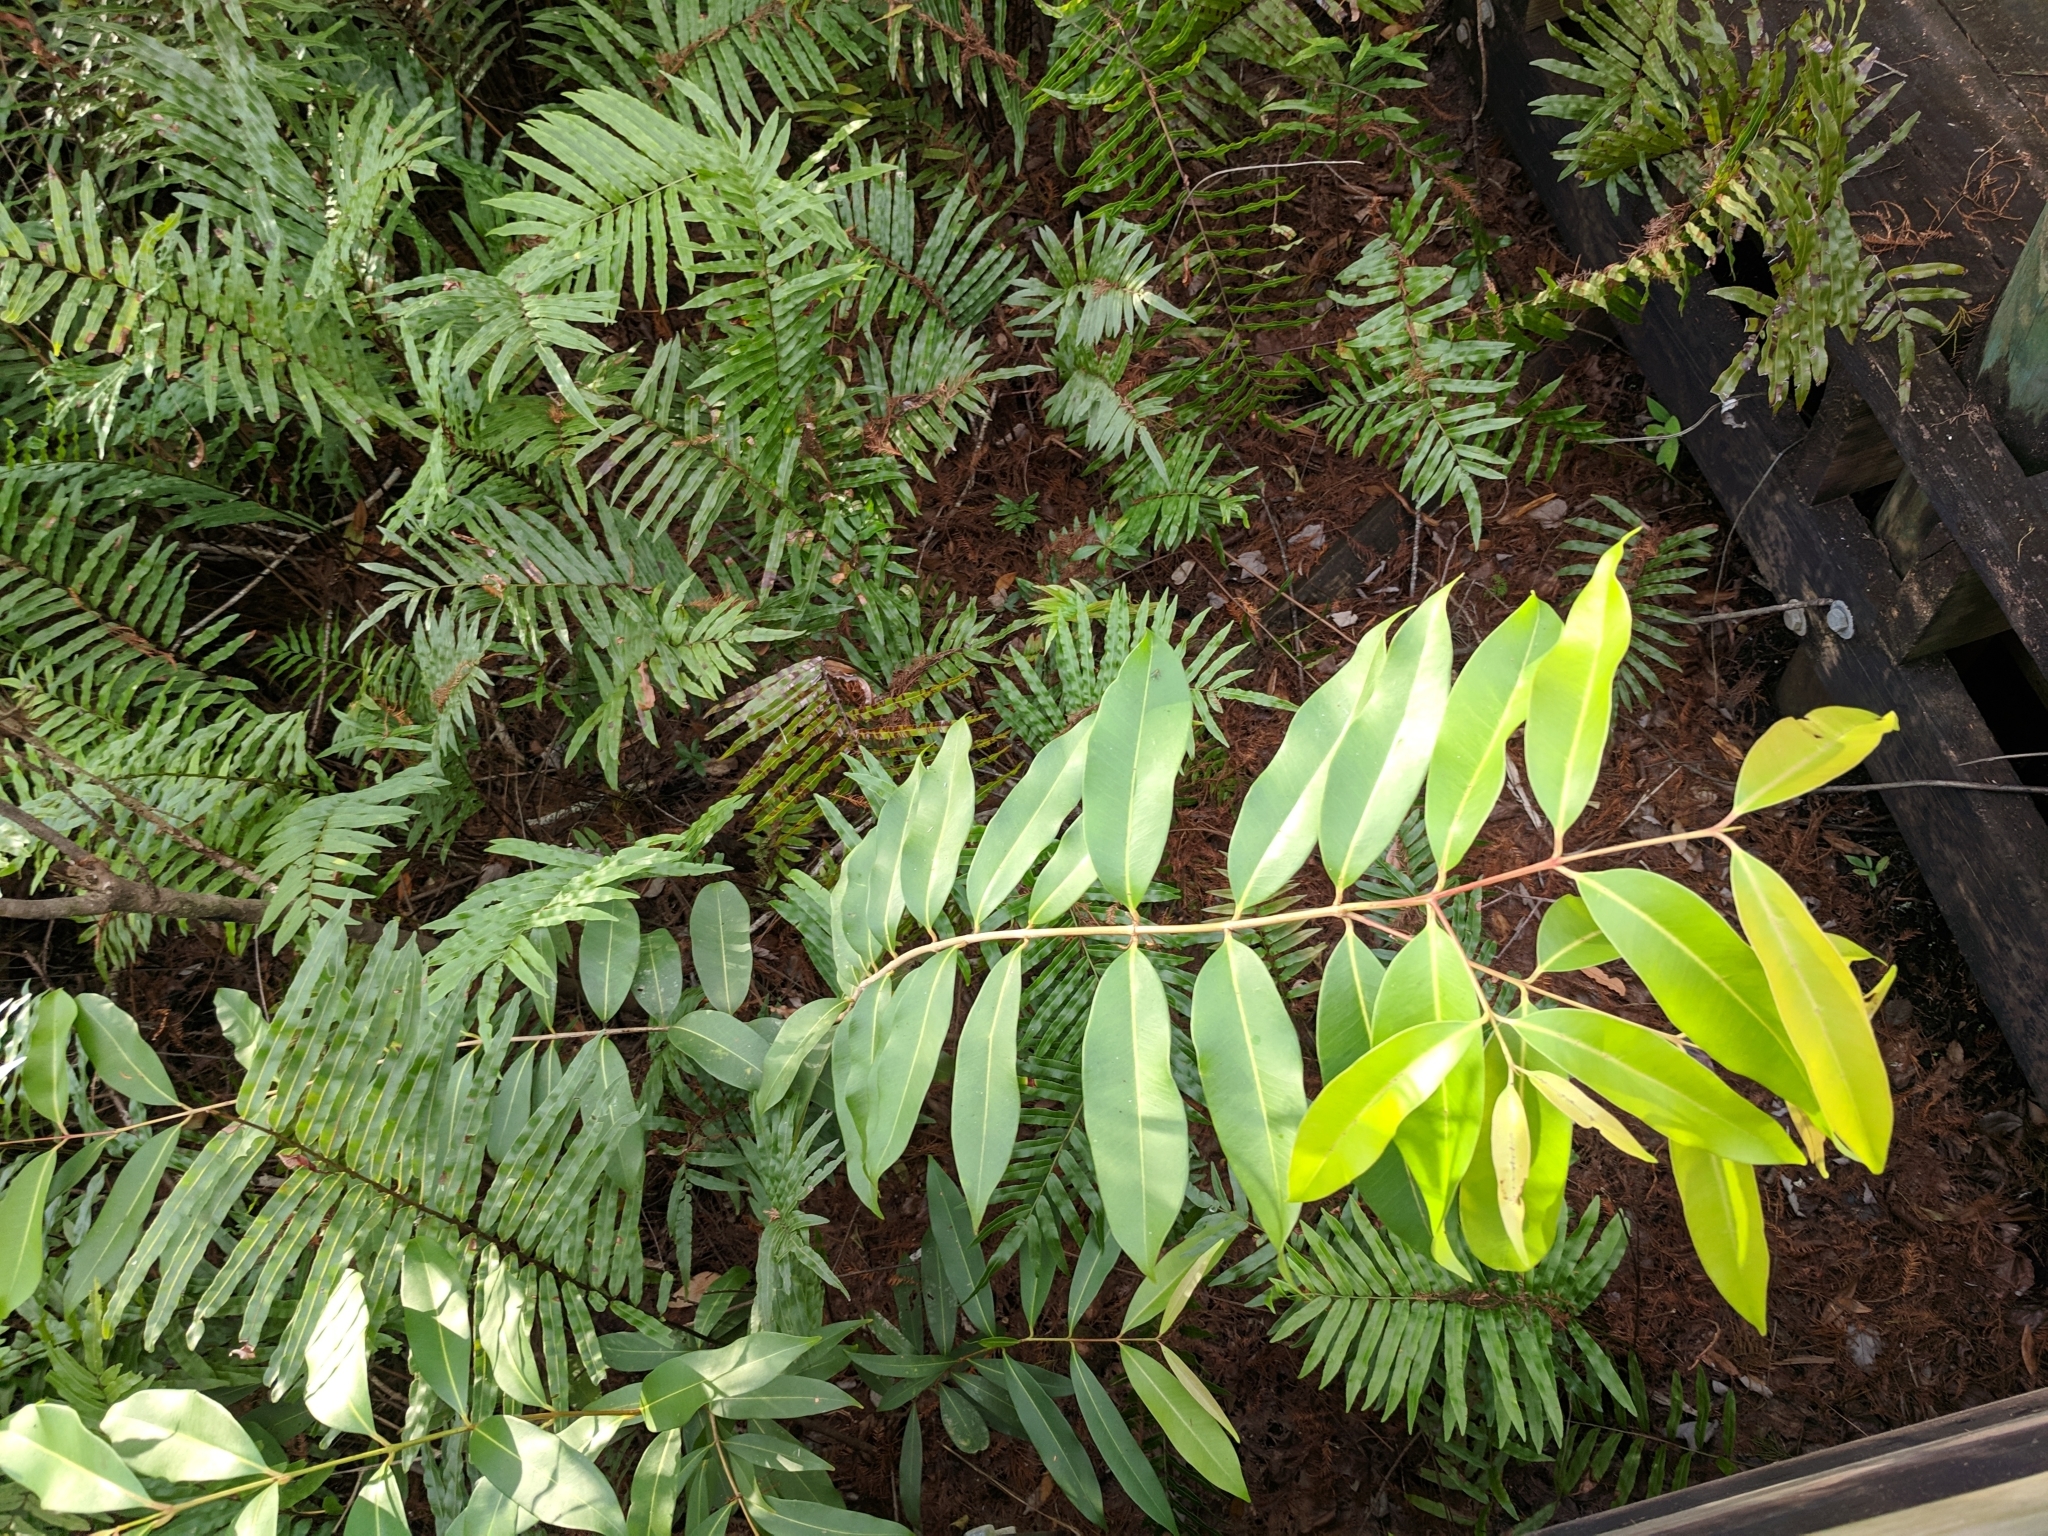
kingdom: Plantae
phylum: Tracheophyta
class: Magnoliopsida
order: Myrtales
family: Myrtaceae
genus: Syzygium
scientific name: Syzygium cumini
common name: Java plum
